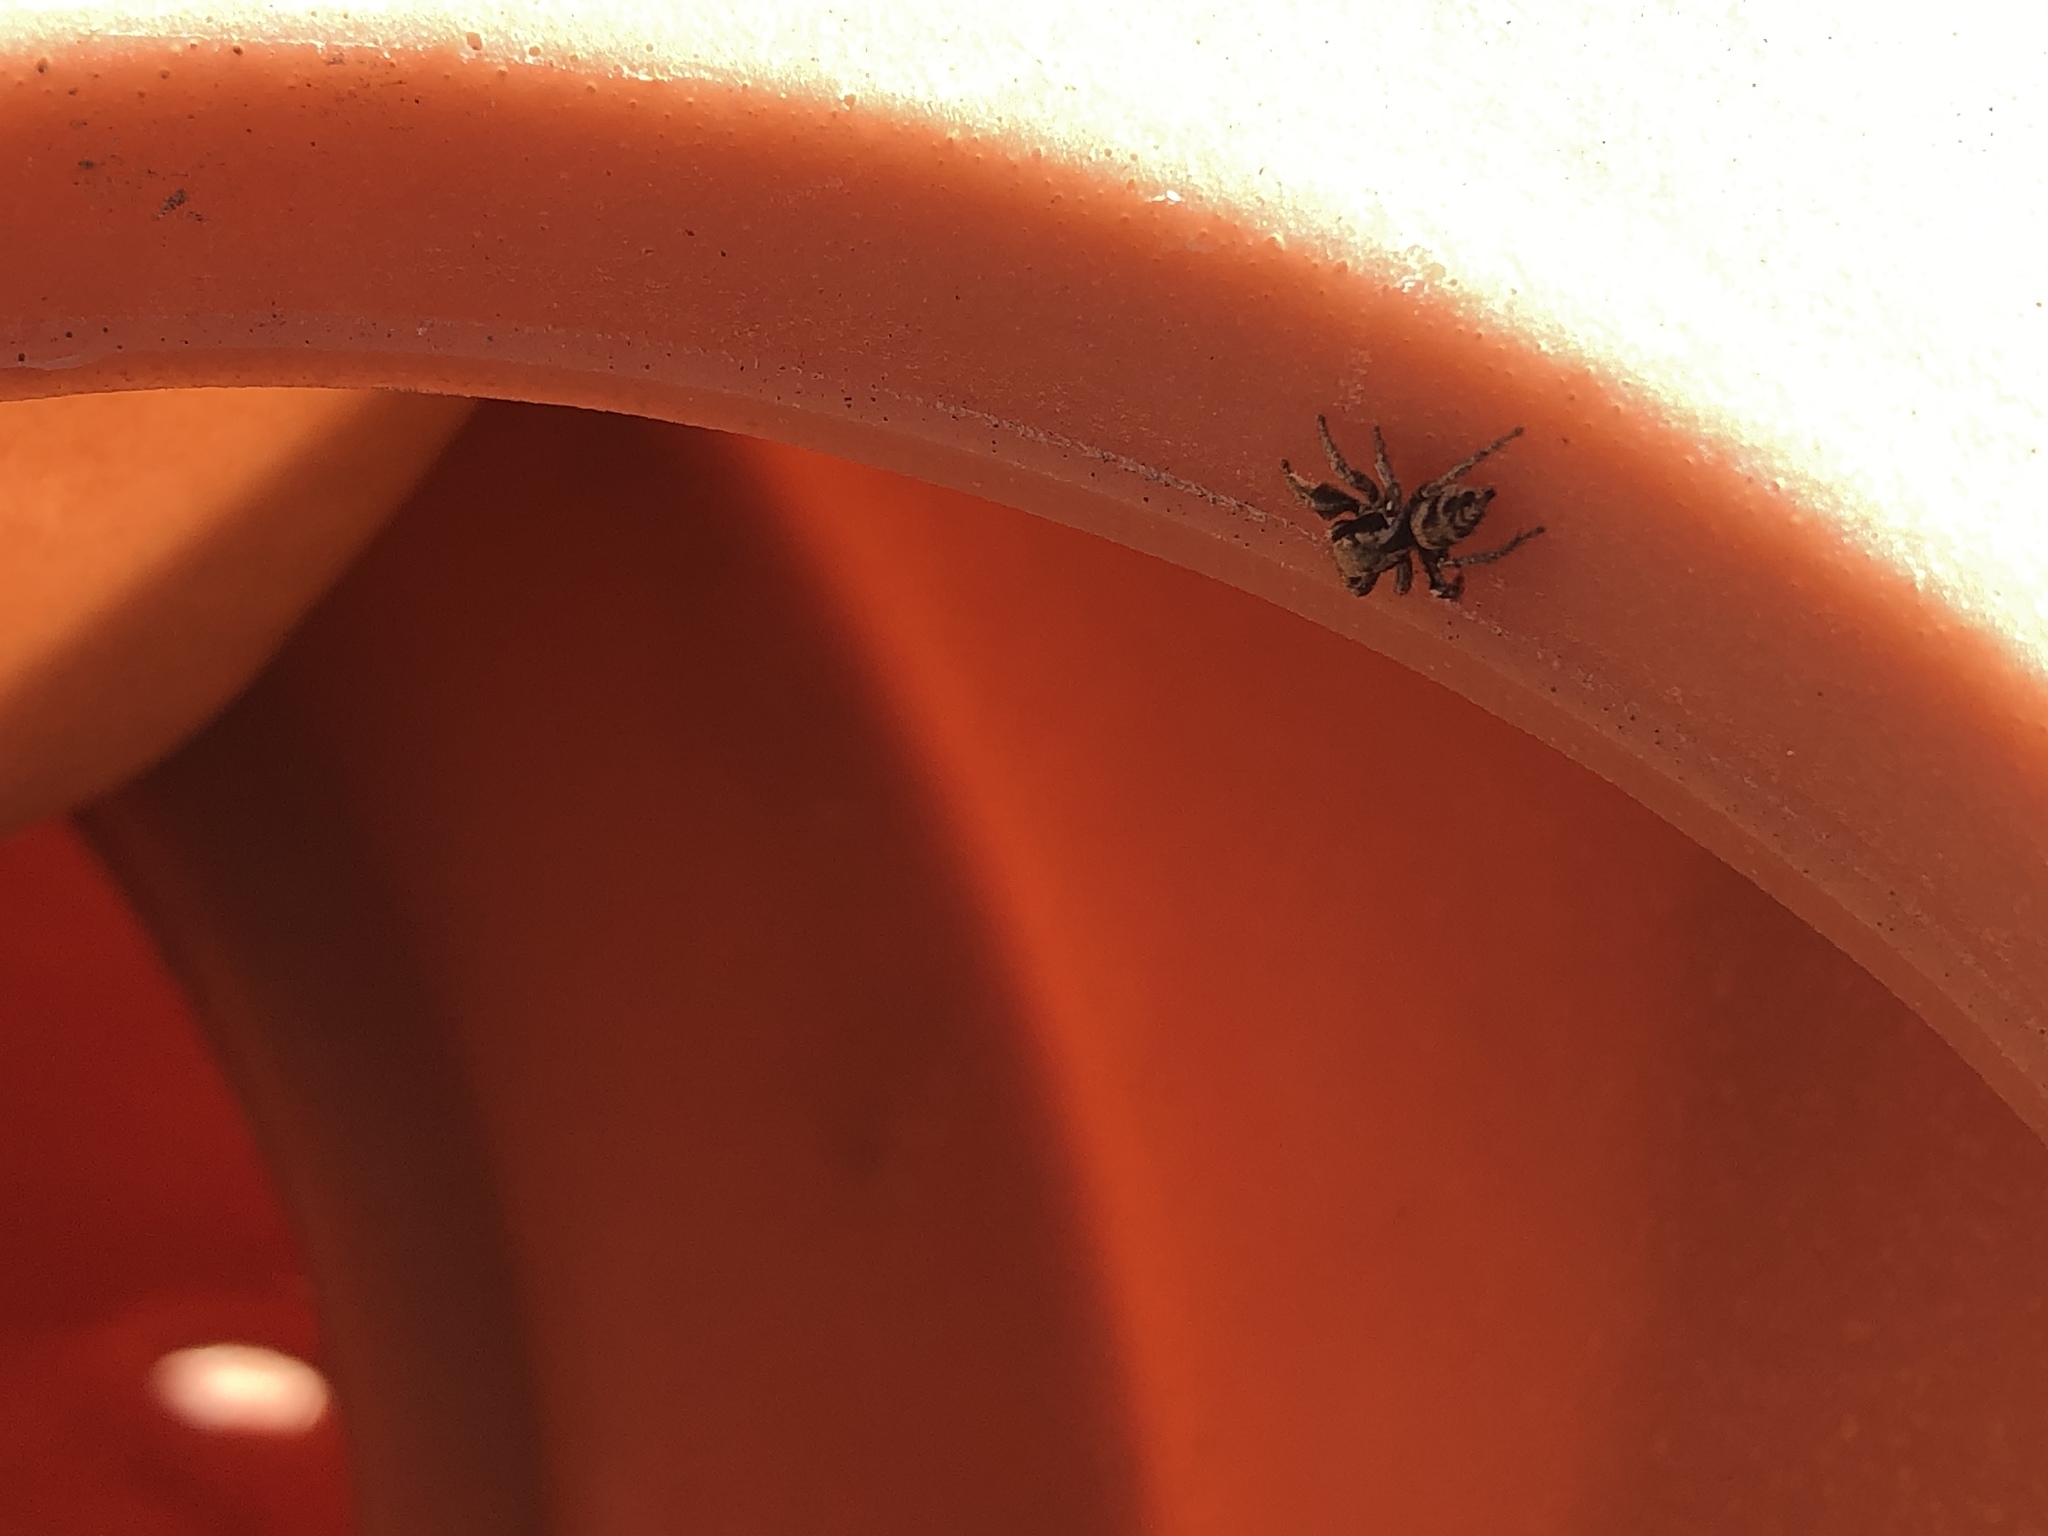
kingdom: Animalia
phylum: Arthropoda
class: Arachnida
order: Araneae
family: Salticidae
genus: Habronattus
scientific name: Habronattus festus
